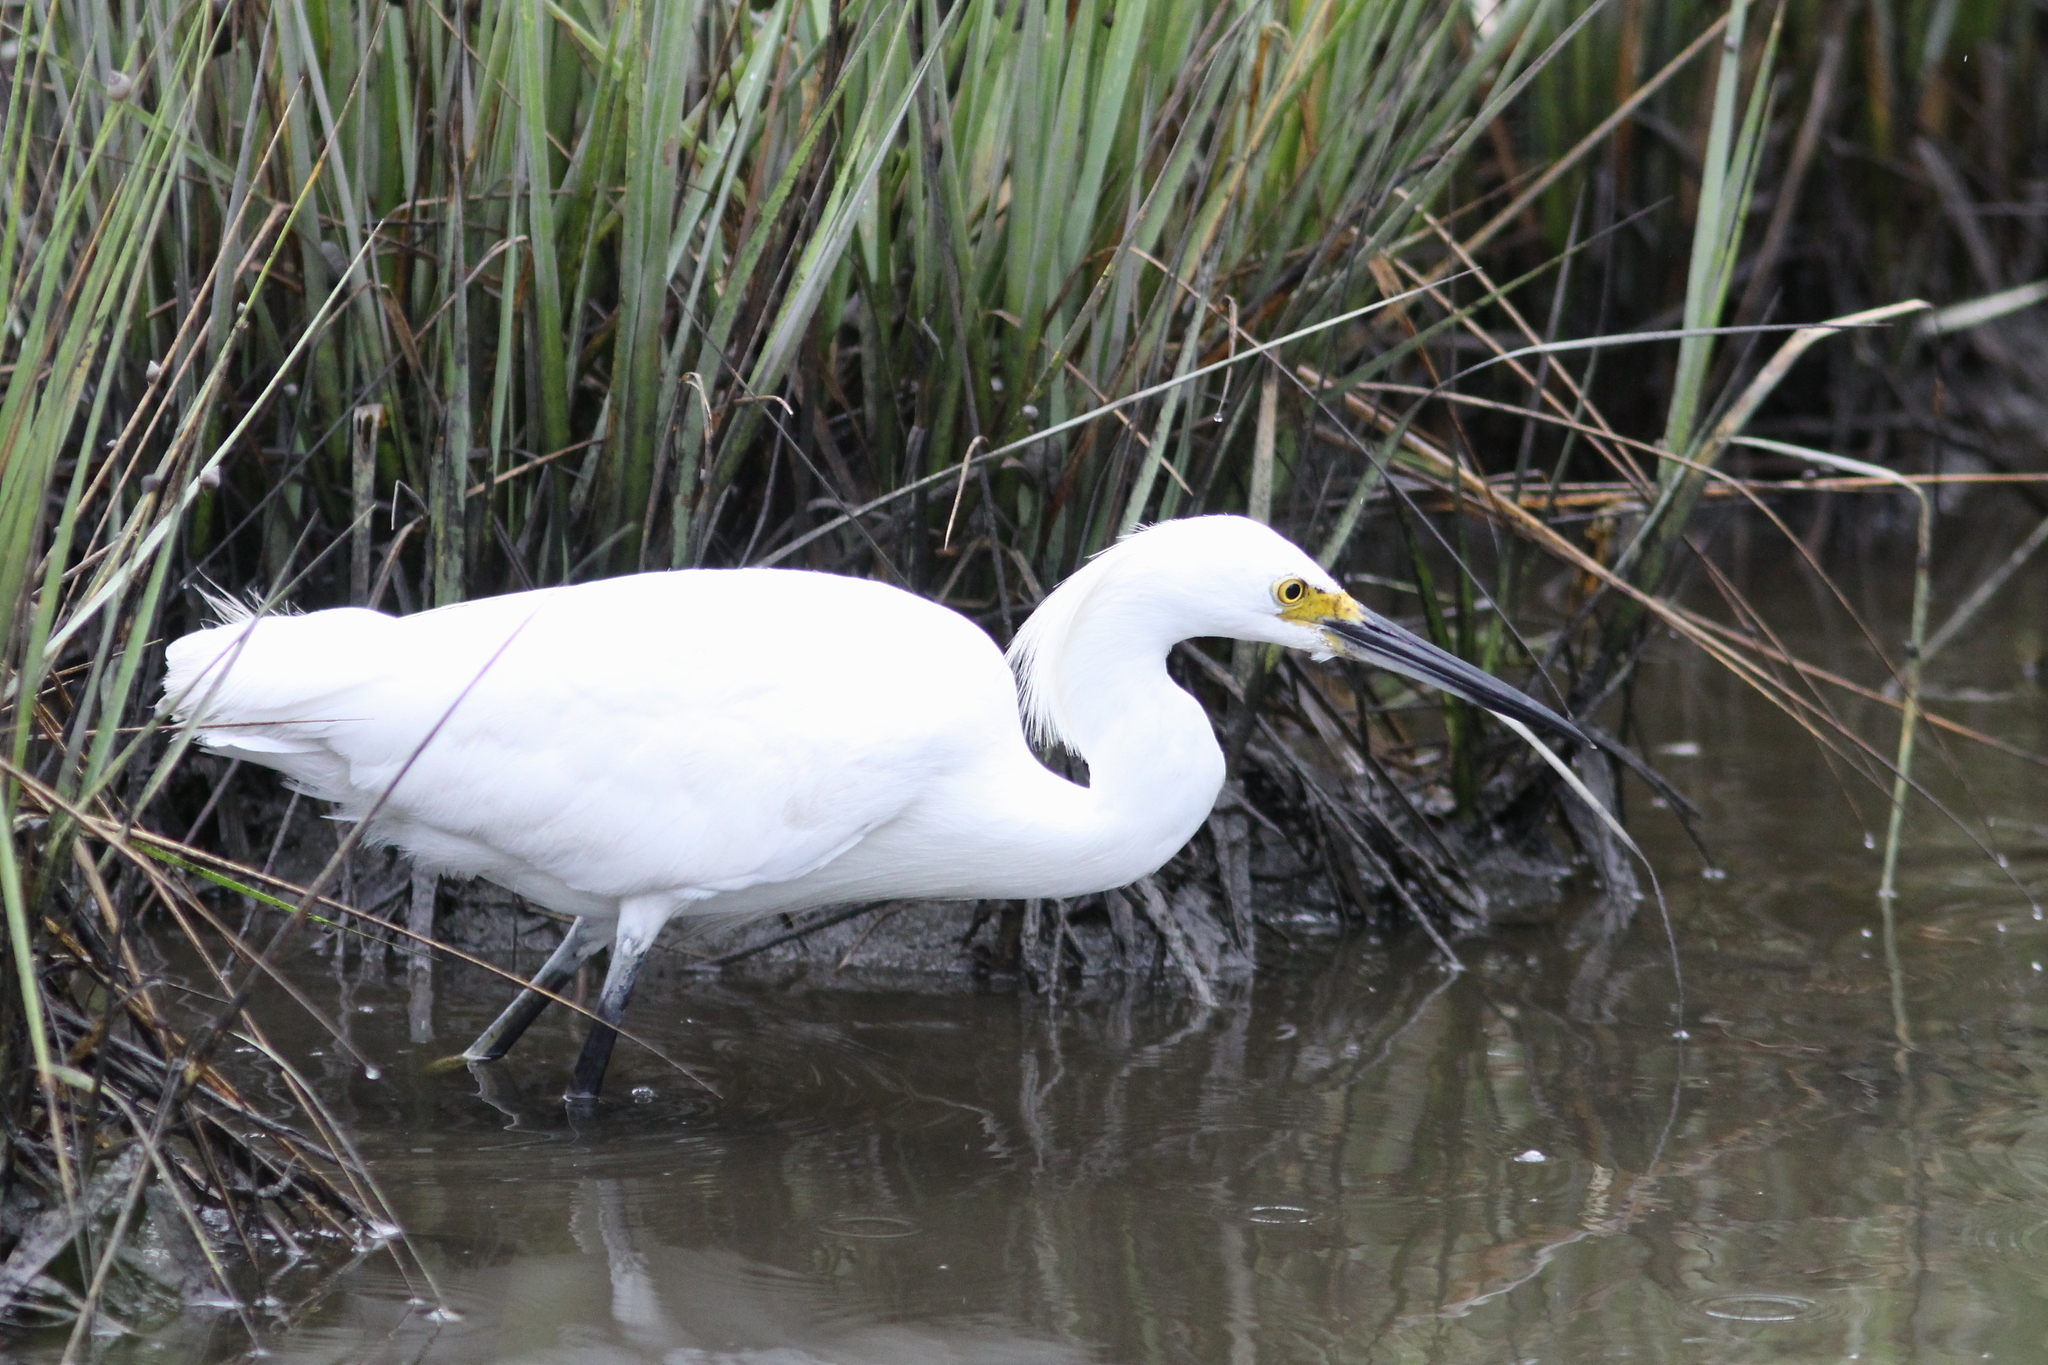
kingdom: Animalia
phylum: Chordata
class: Aves
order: Pelecaniformes
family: Ardeidae
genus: Egretta
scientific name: Egretta thula
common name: Snowy egret
